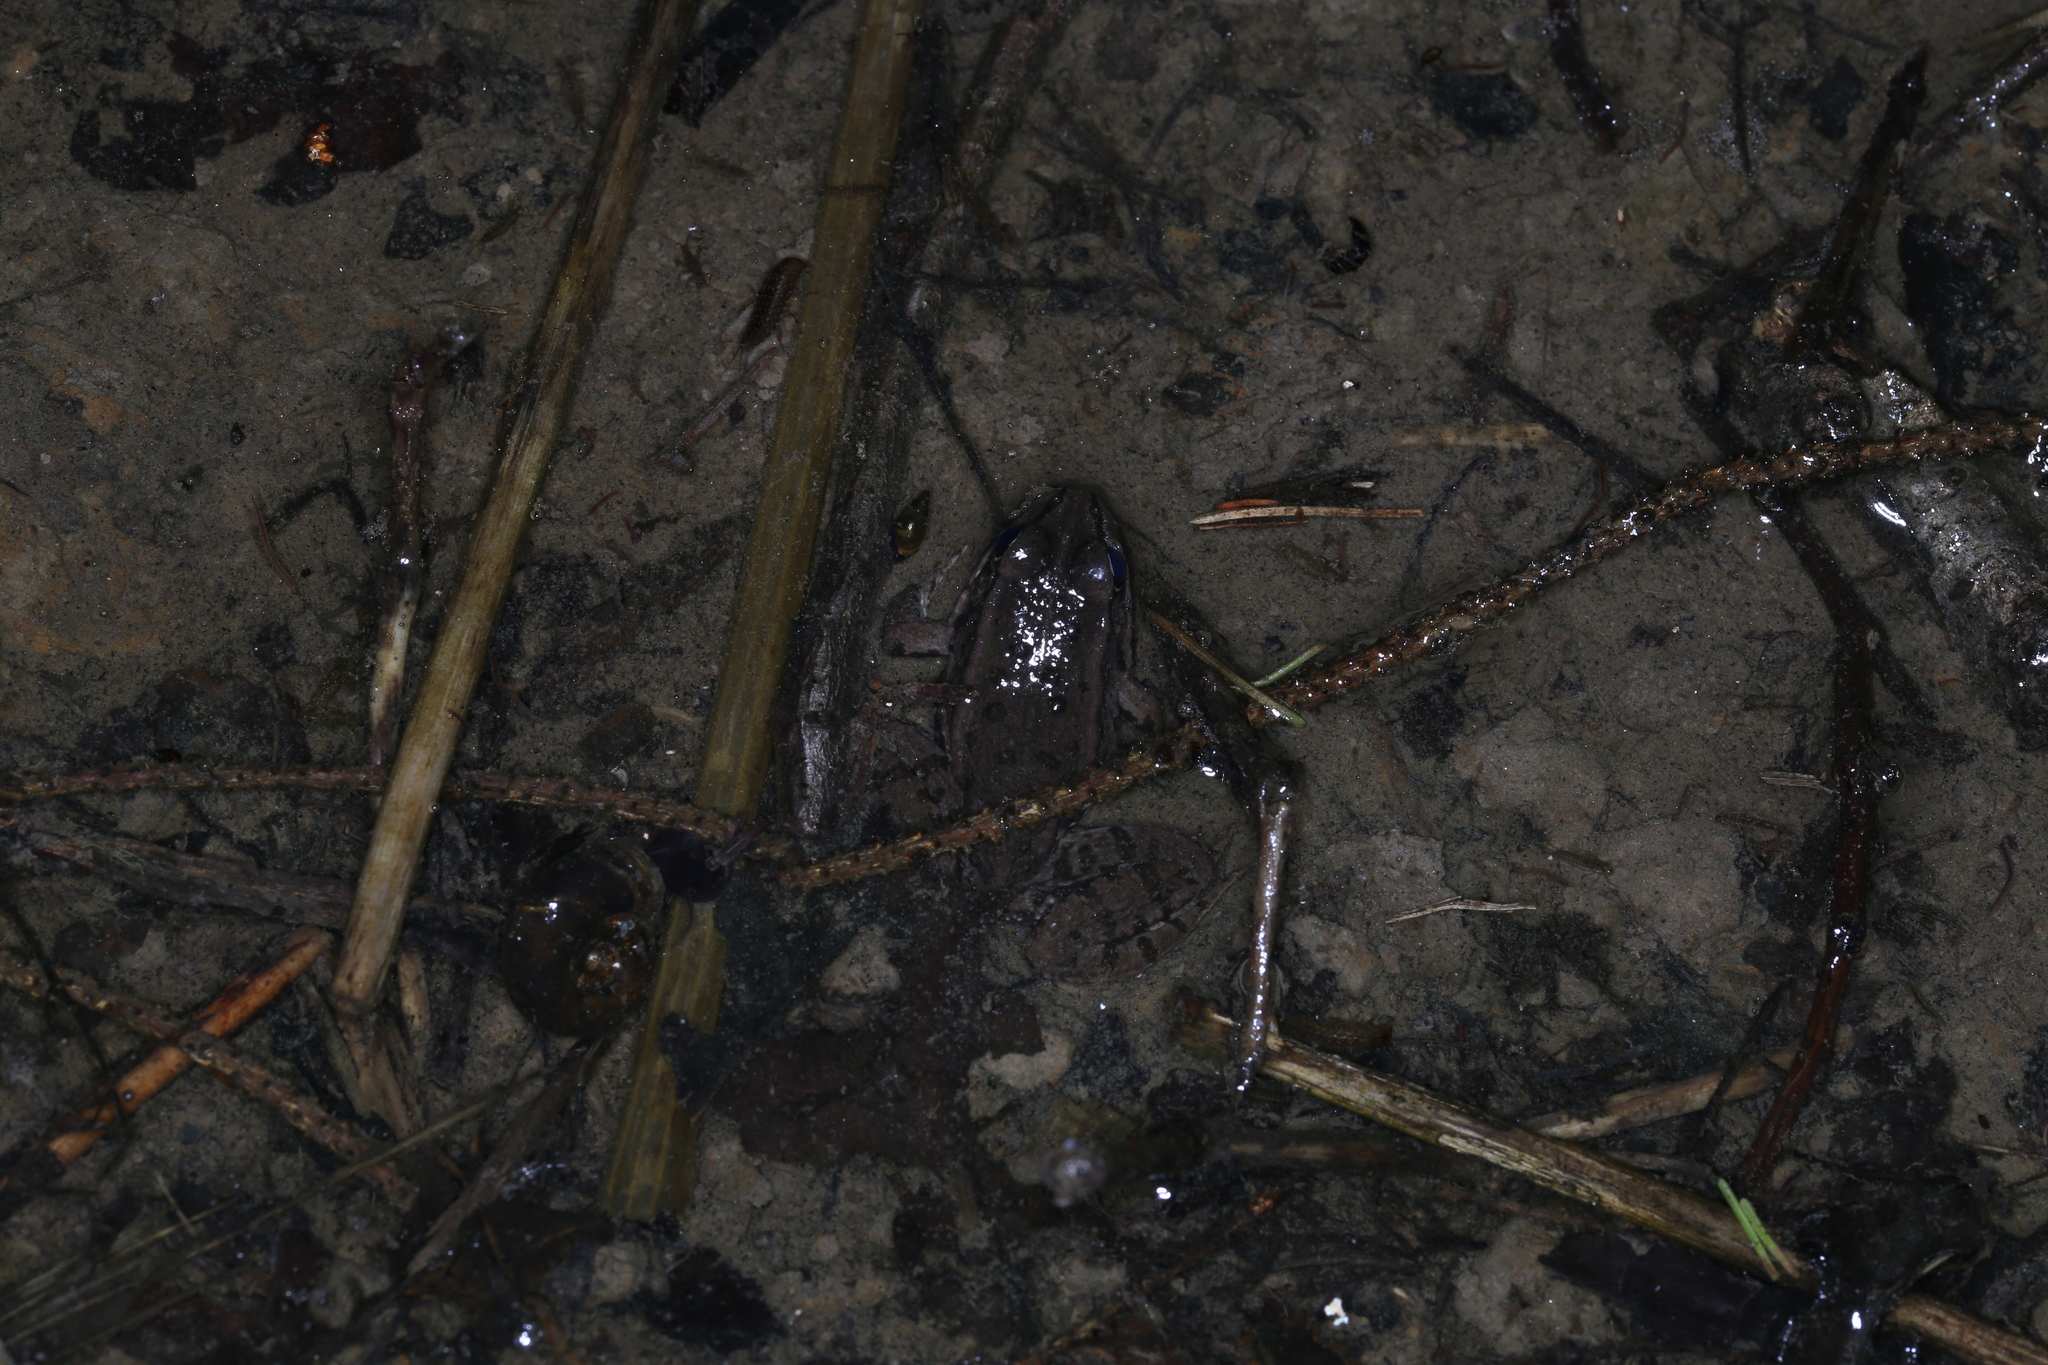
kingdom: Animalia
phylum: Chordata
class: Amphibia
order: Anura
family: Ranidae
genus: Pelophylax
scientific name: Pelophylax
